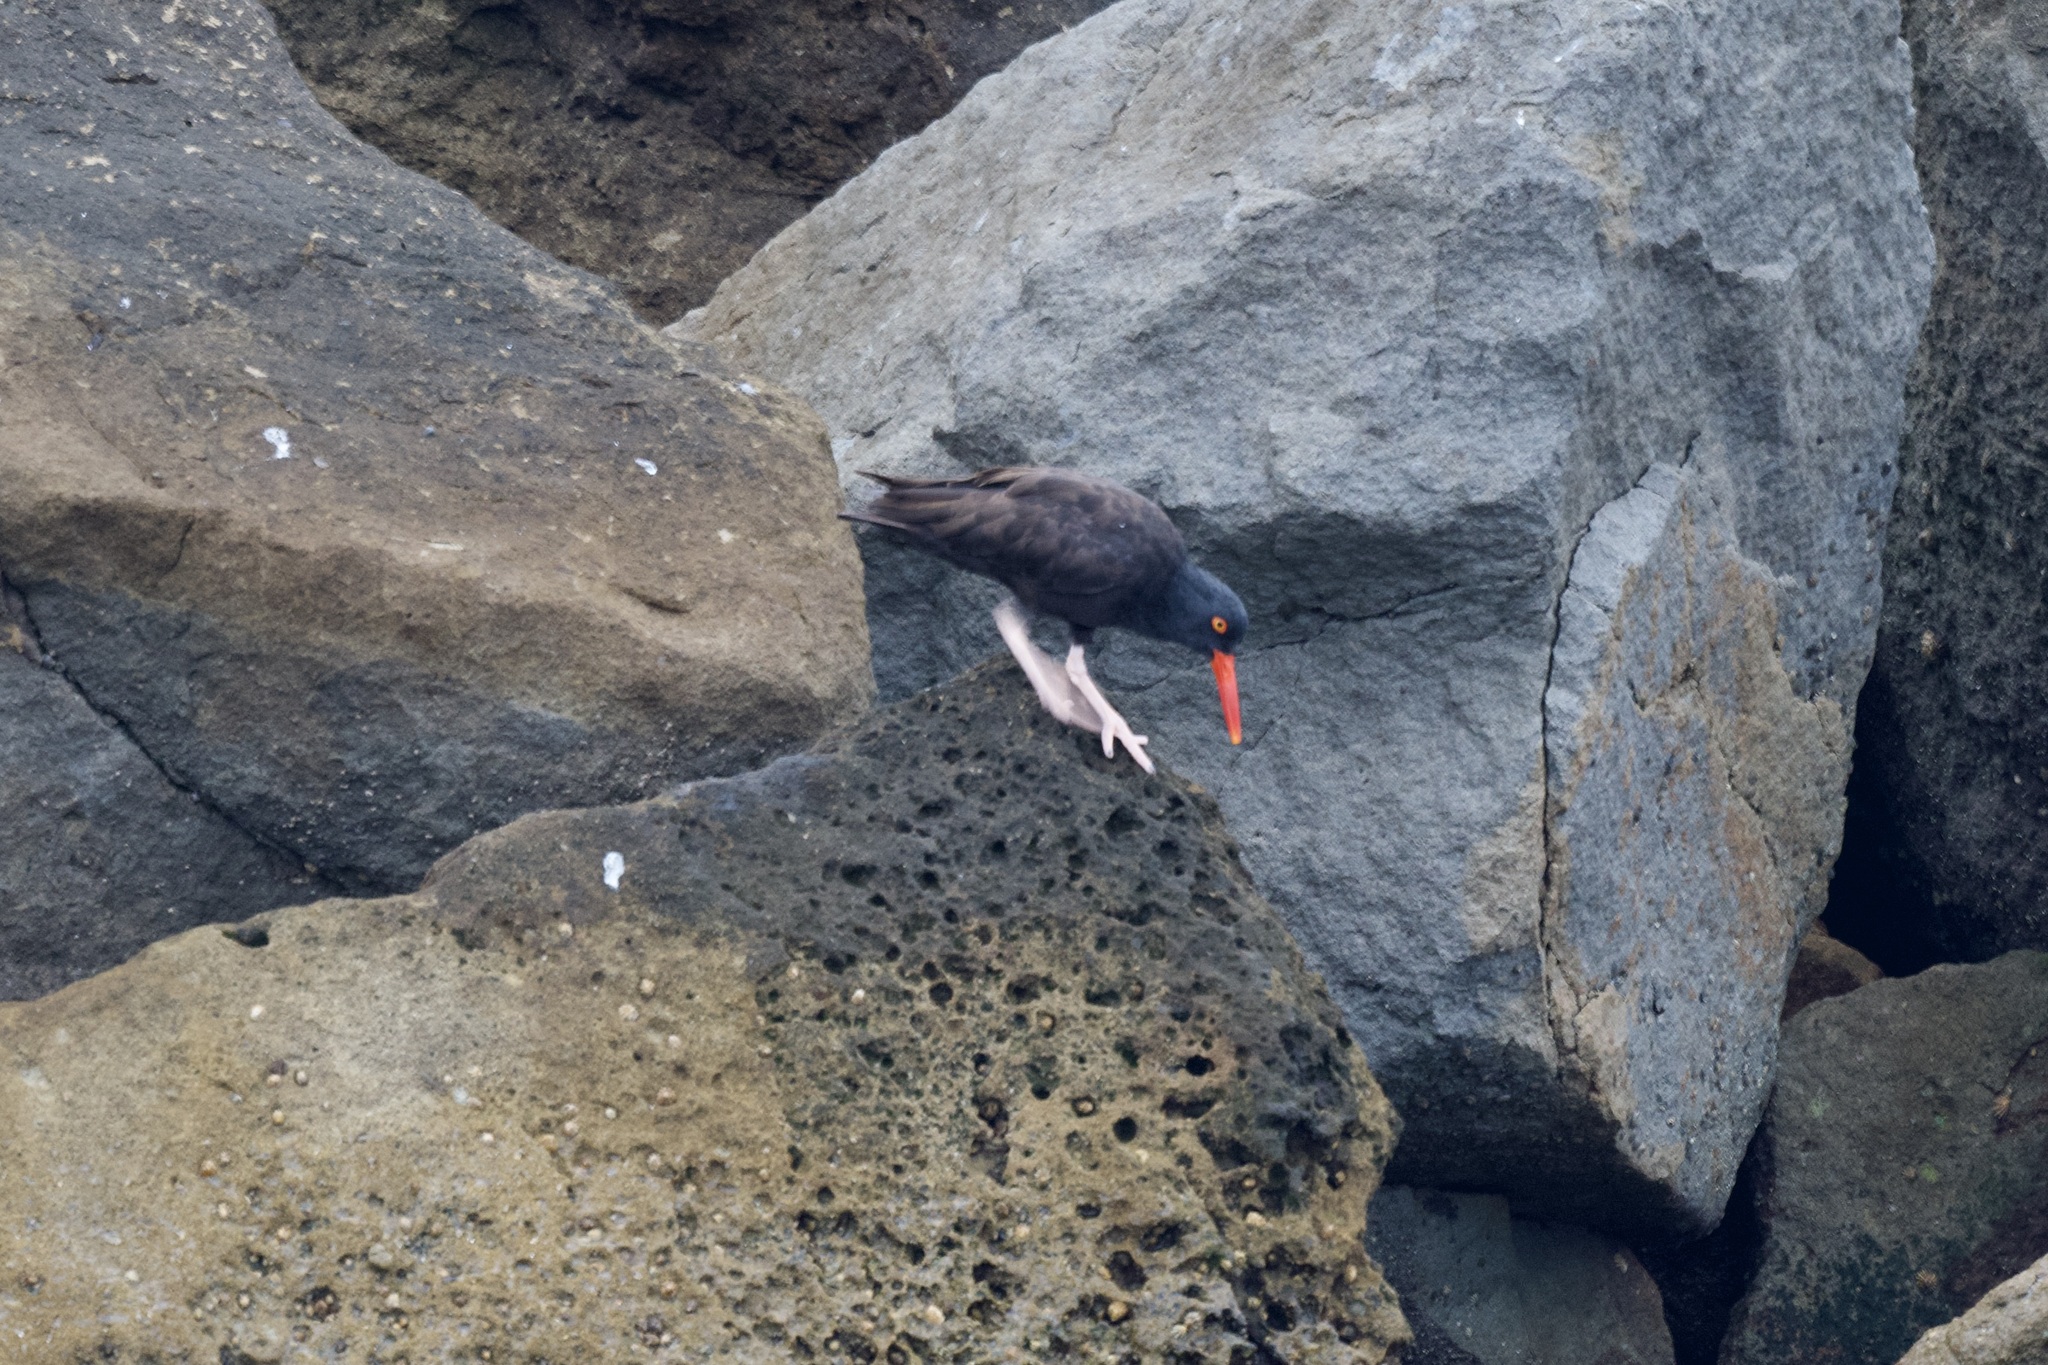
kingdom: Animalia
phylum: Chordata
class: Aves
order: Charadriiformes
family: Haematopodidae
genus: Haematopus
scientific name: Haematopus bachmani
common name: Black oystercatcher
